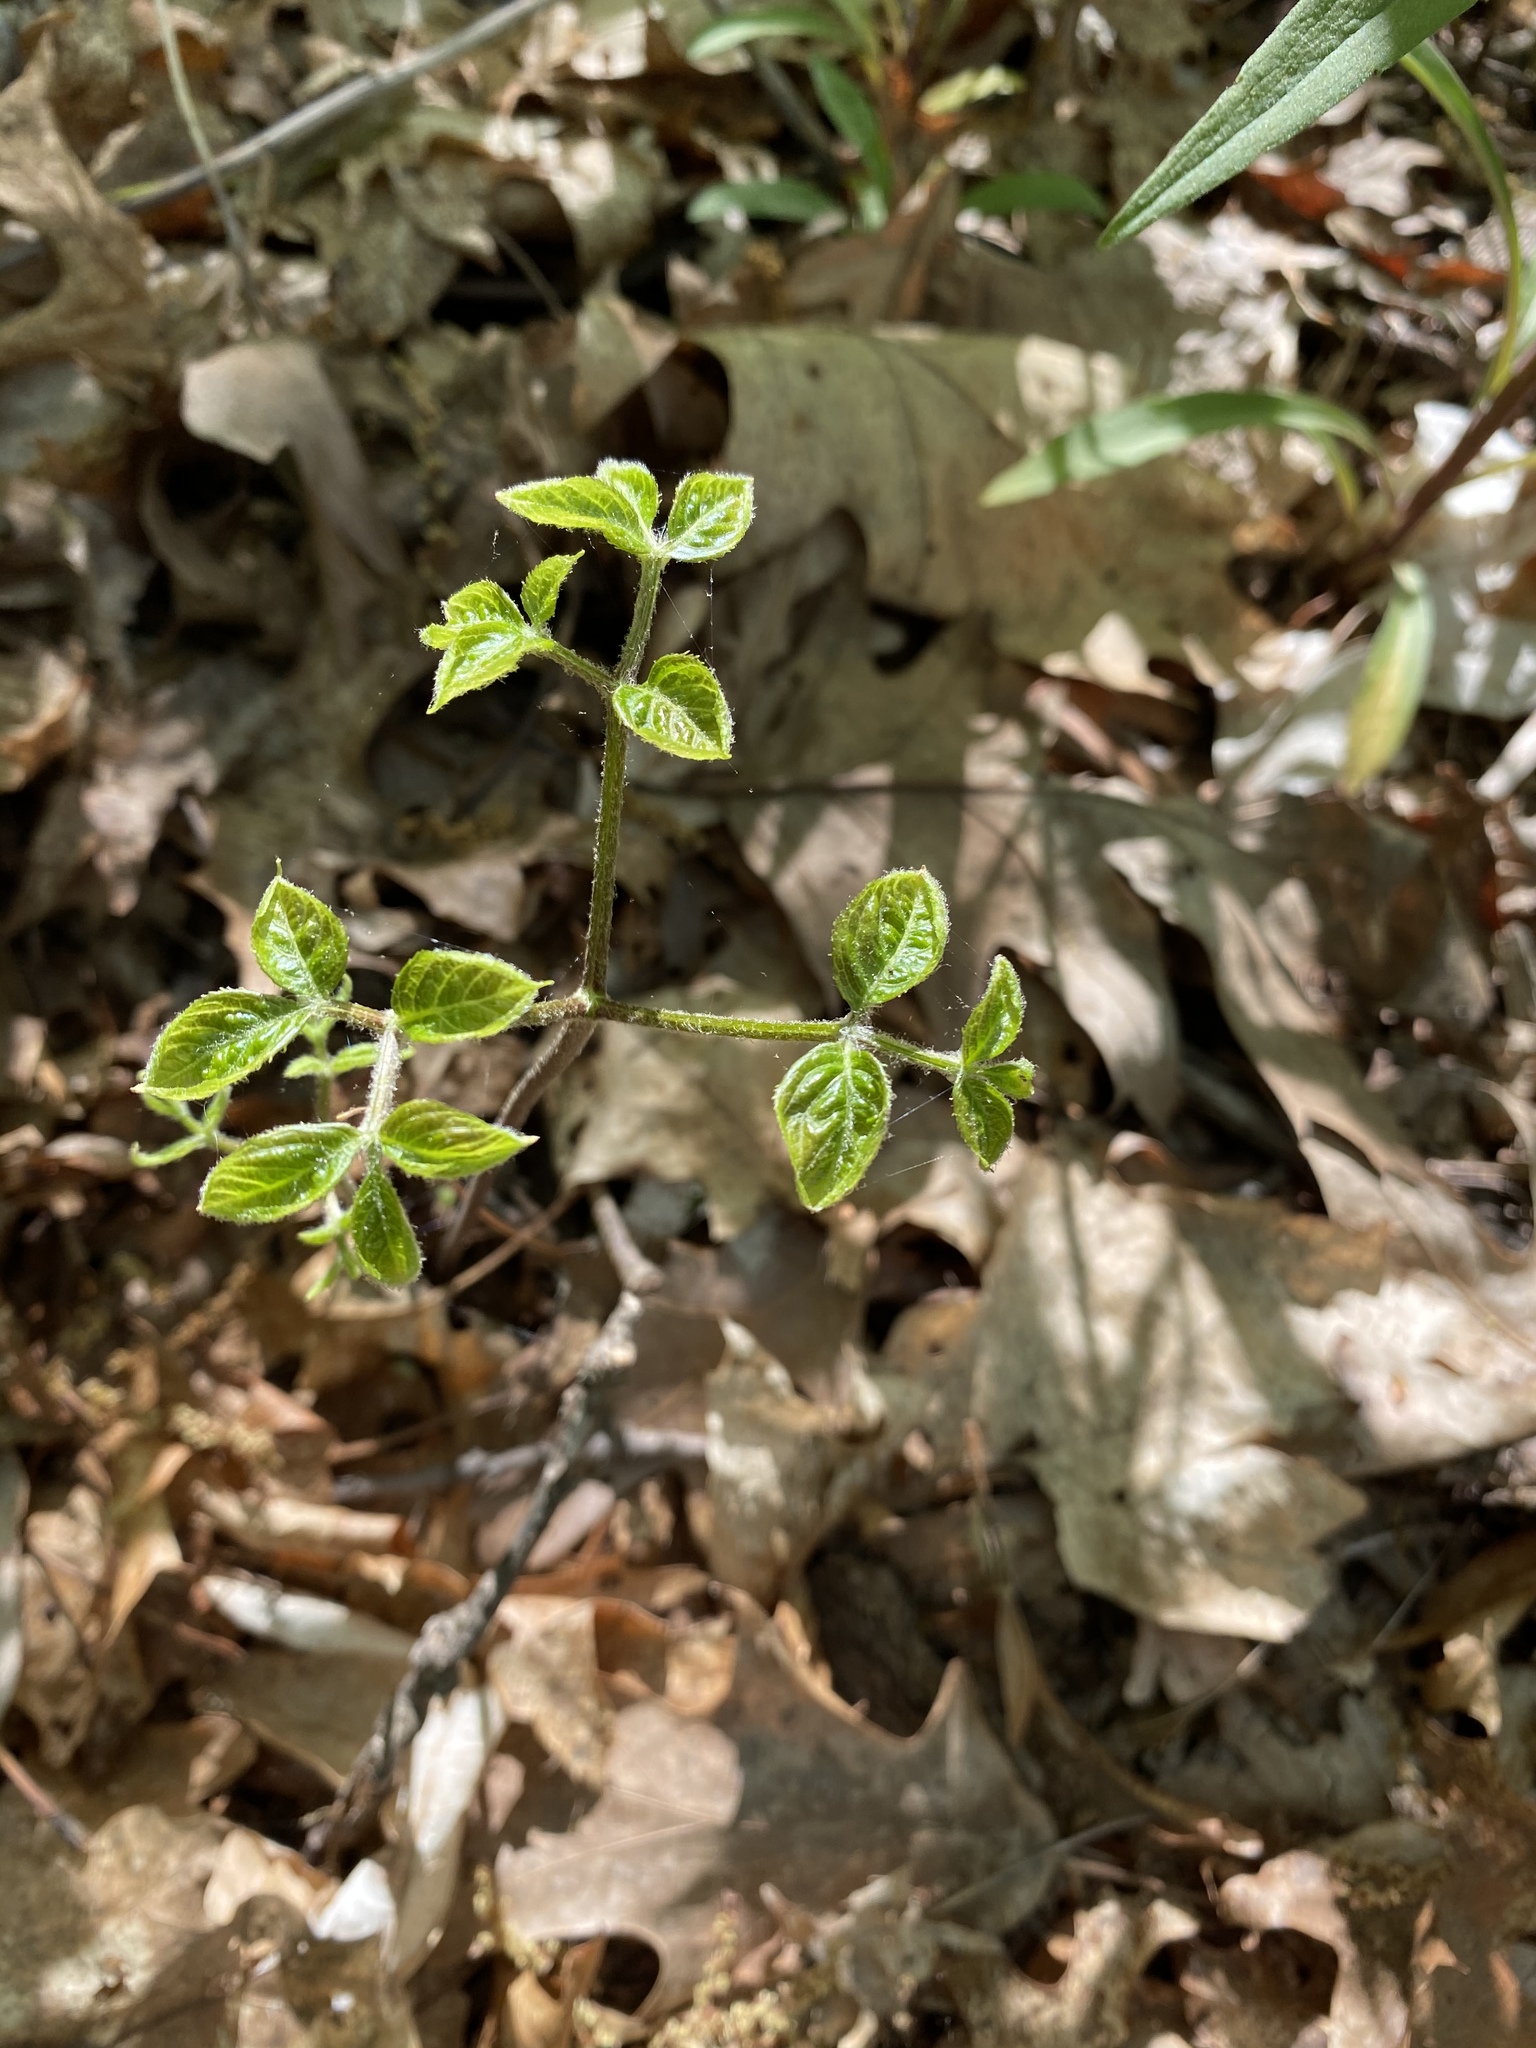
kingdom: Plantae
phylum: Tracheophyta
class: Magnoliopsida
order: Apiales
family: Araliaceae
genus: Aralia
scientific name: Aralia nudicaulis
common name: Wild sarsaparilla
